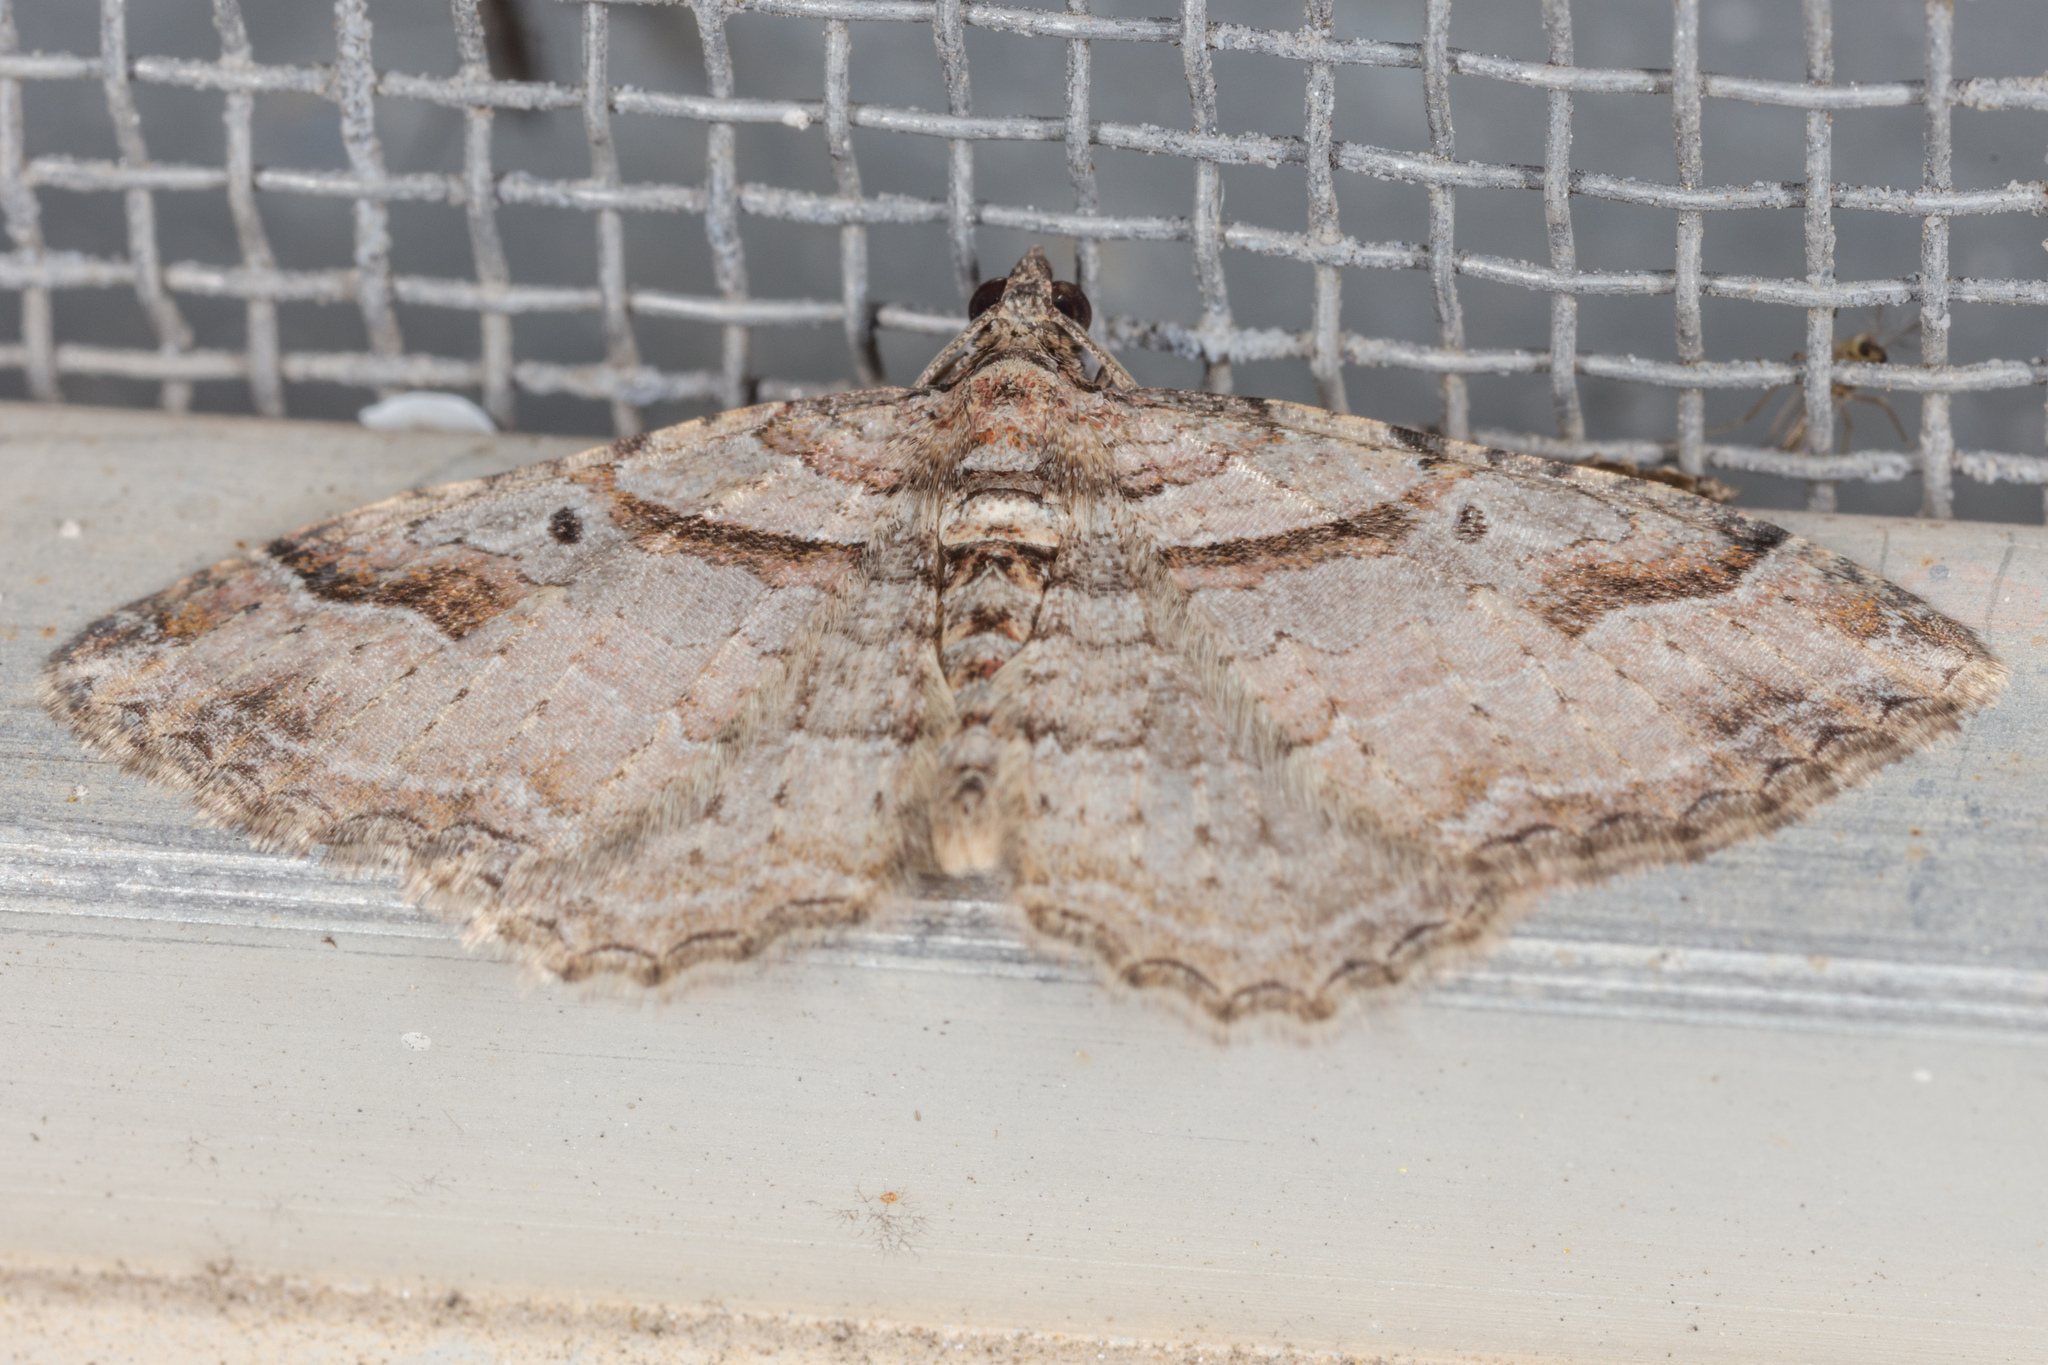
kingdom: Animalia
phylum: Arthropoda
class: Insecta
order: Lepidoptera
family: Geometridae
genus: Costaconvexa
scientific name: Costaconvexa centrostrigaria
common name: Bent-line carpet
